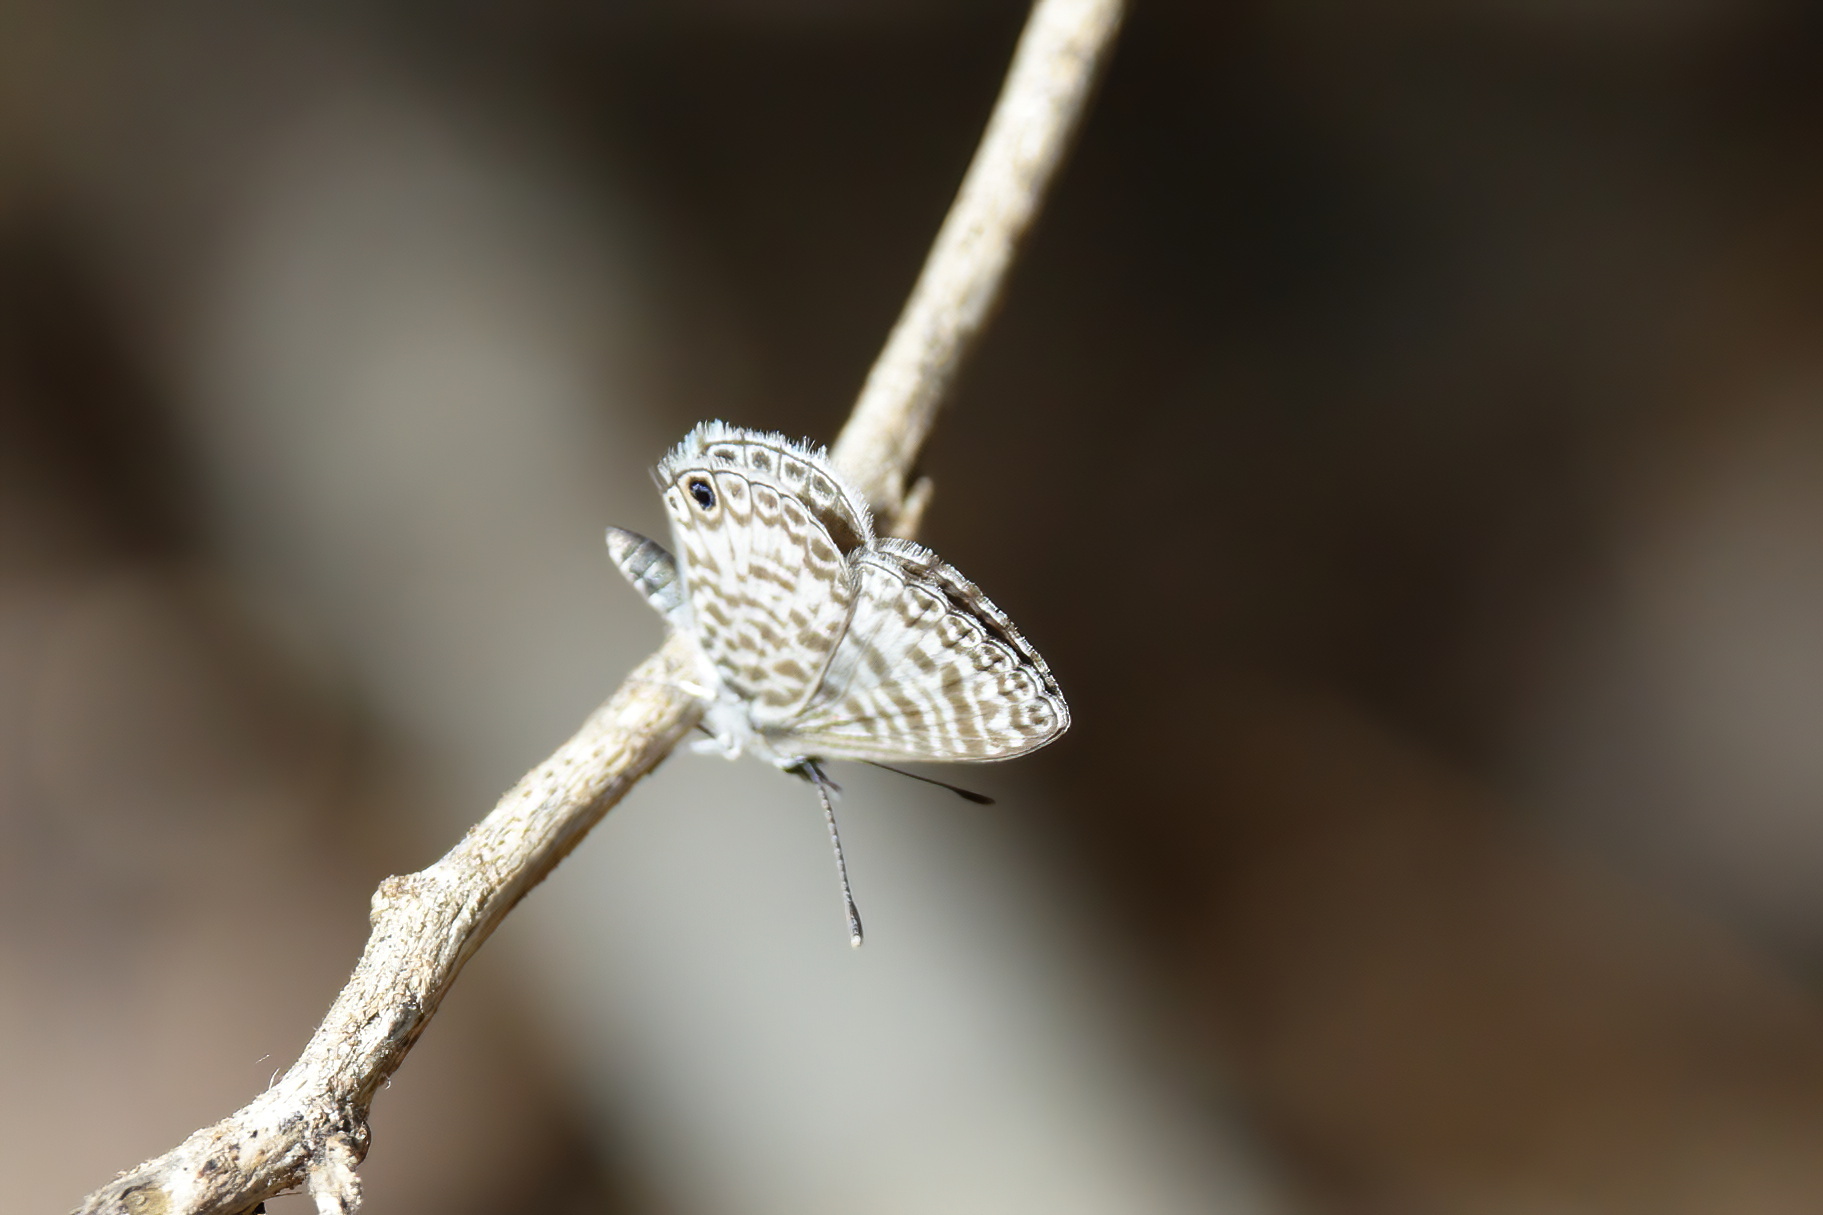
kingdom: Animalia
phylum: Arthropoda
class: Insecta
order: Lepidoptera
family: Lycaenidae
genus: Leptotes
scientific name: Leptotes cassius
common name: Cassius blue
